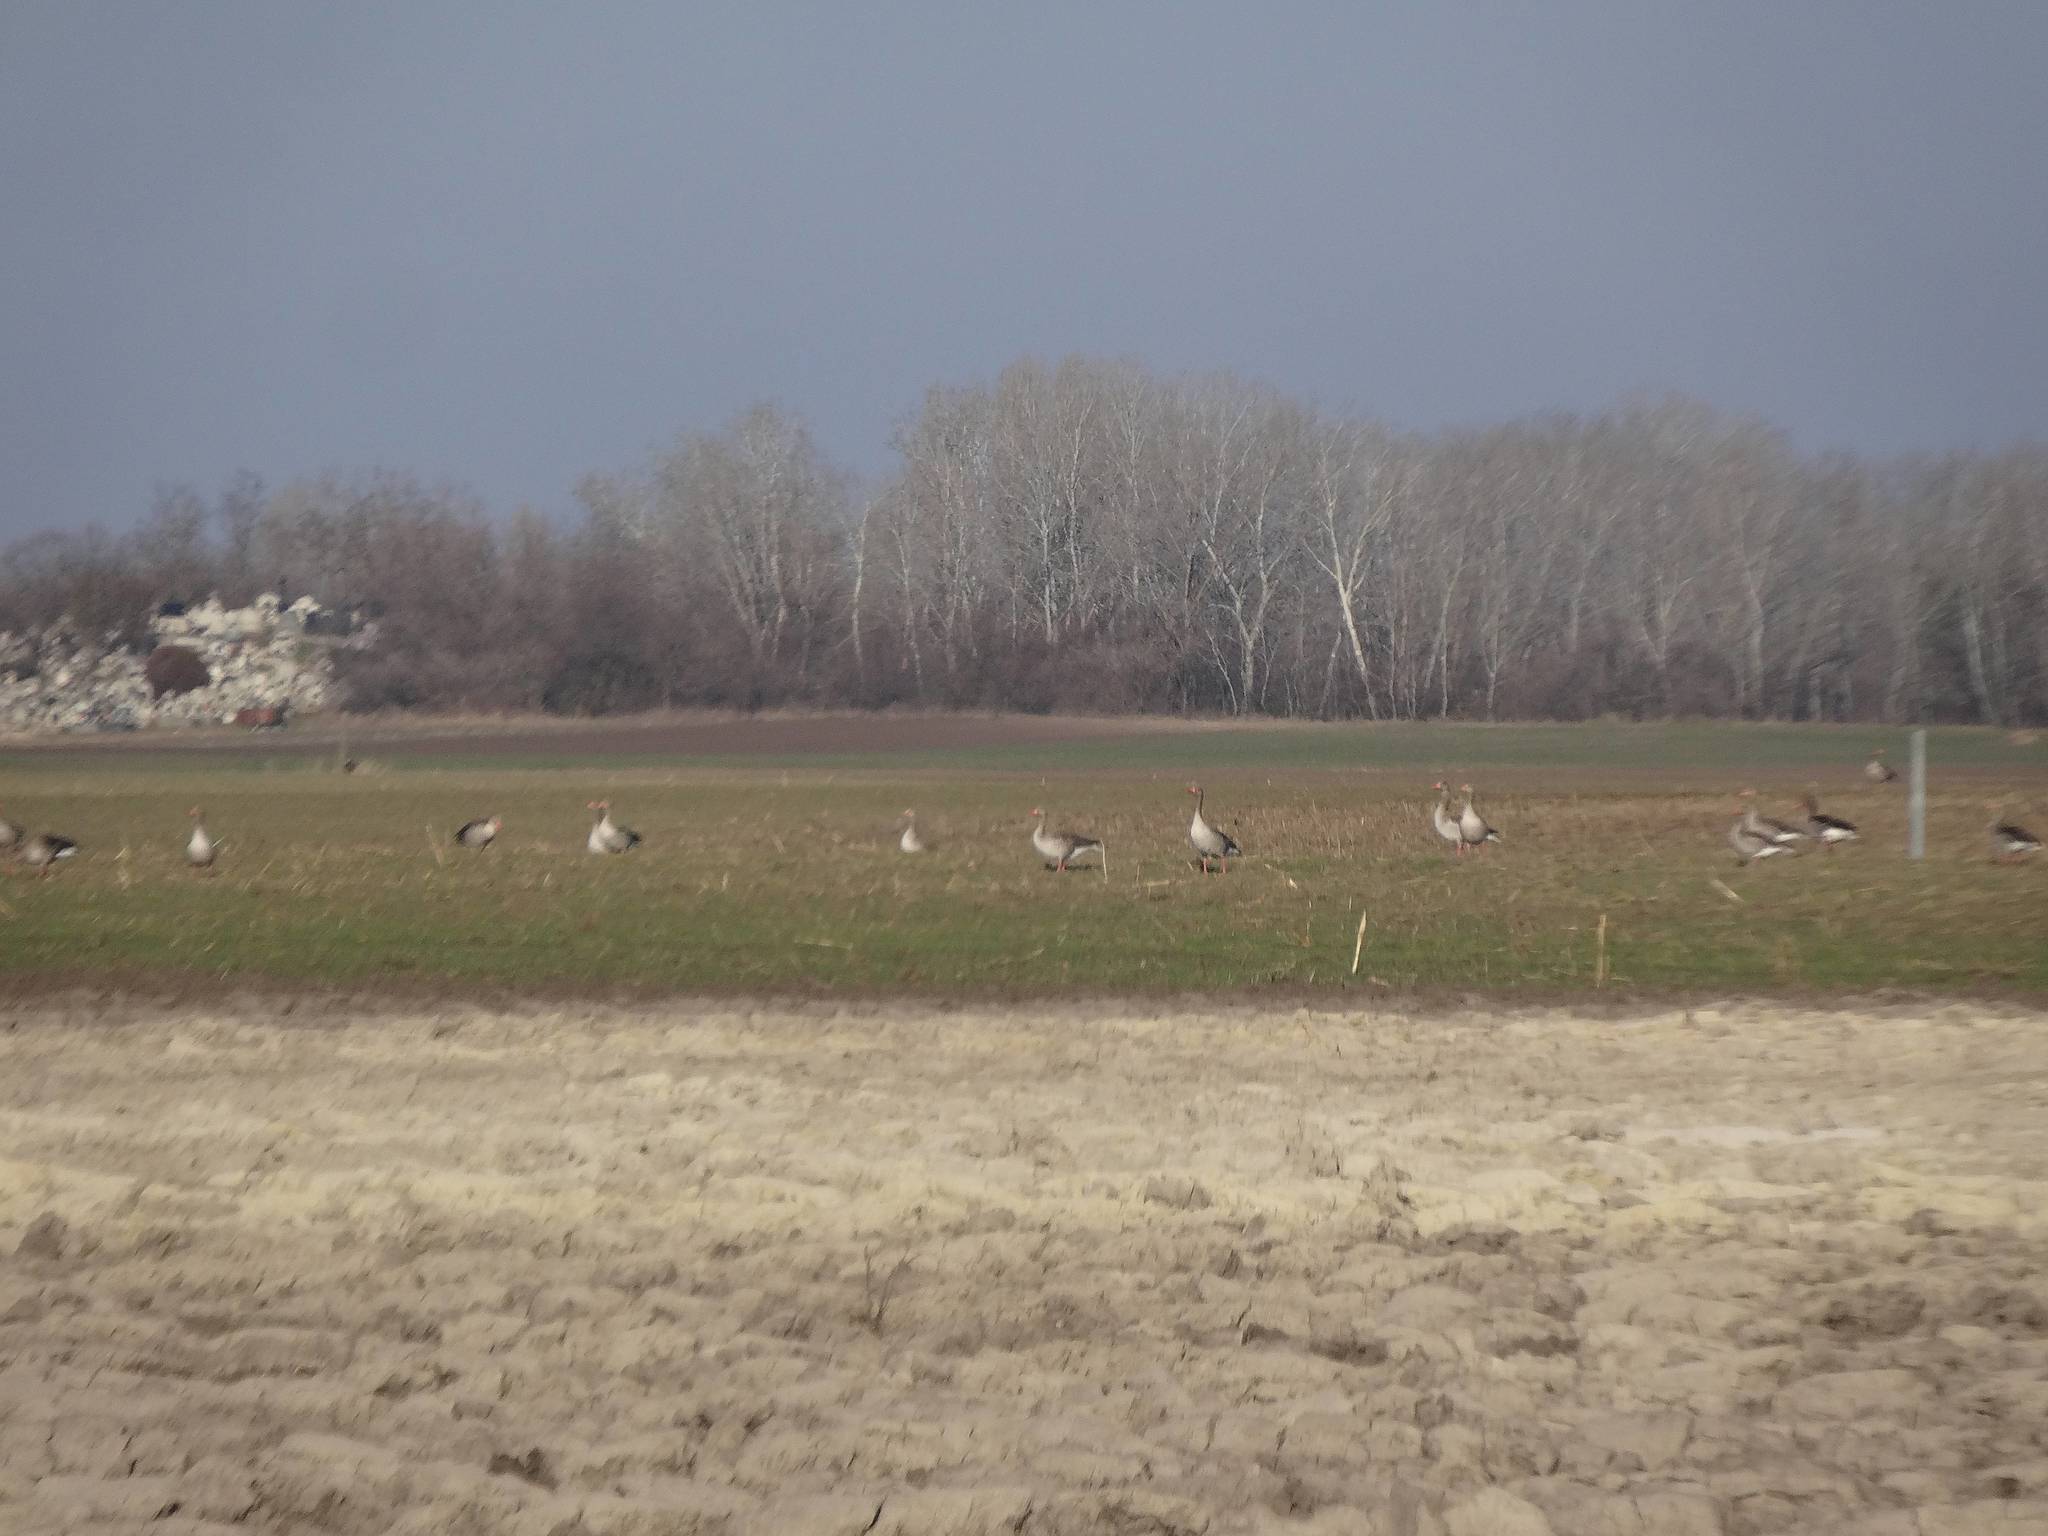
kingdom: Animalia
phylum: Chordata
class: Aves
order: Anseriformes
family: Anatidae
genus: Anser
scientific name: Anser anser
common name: Greylag goose
